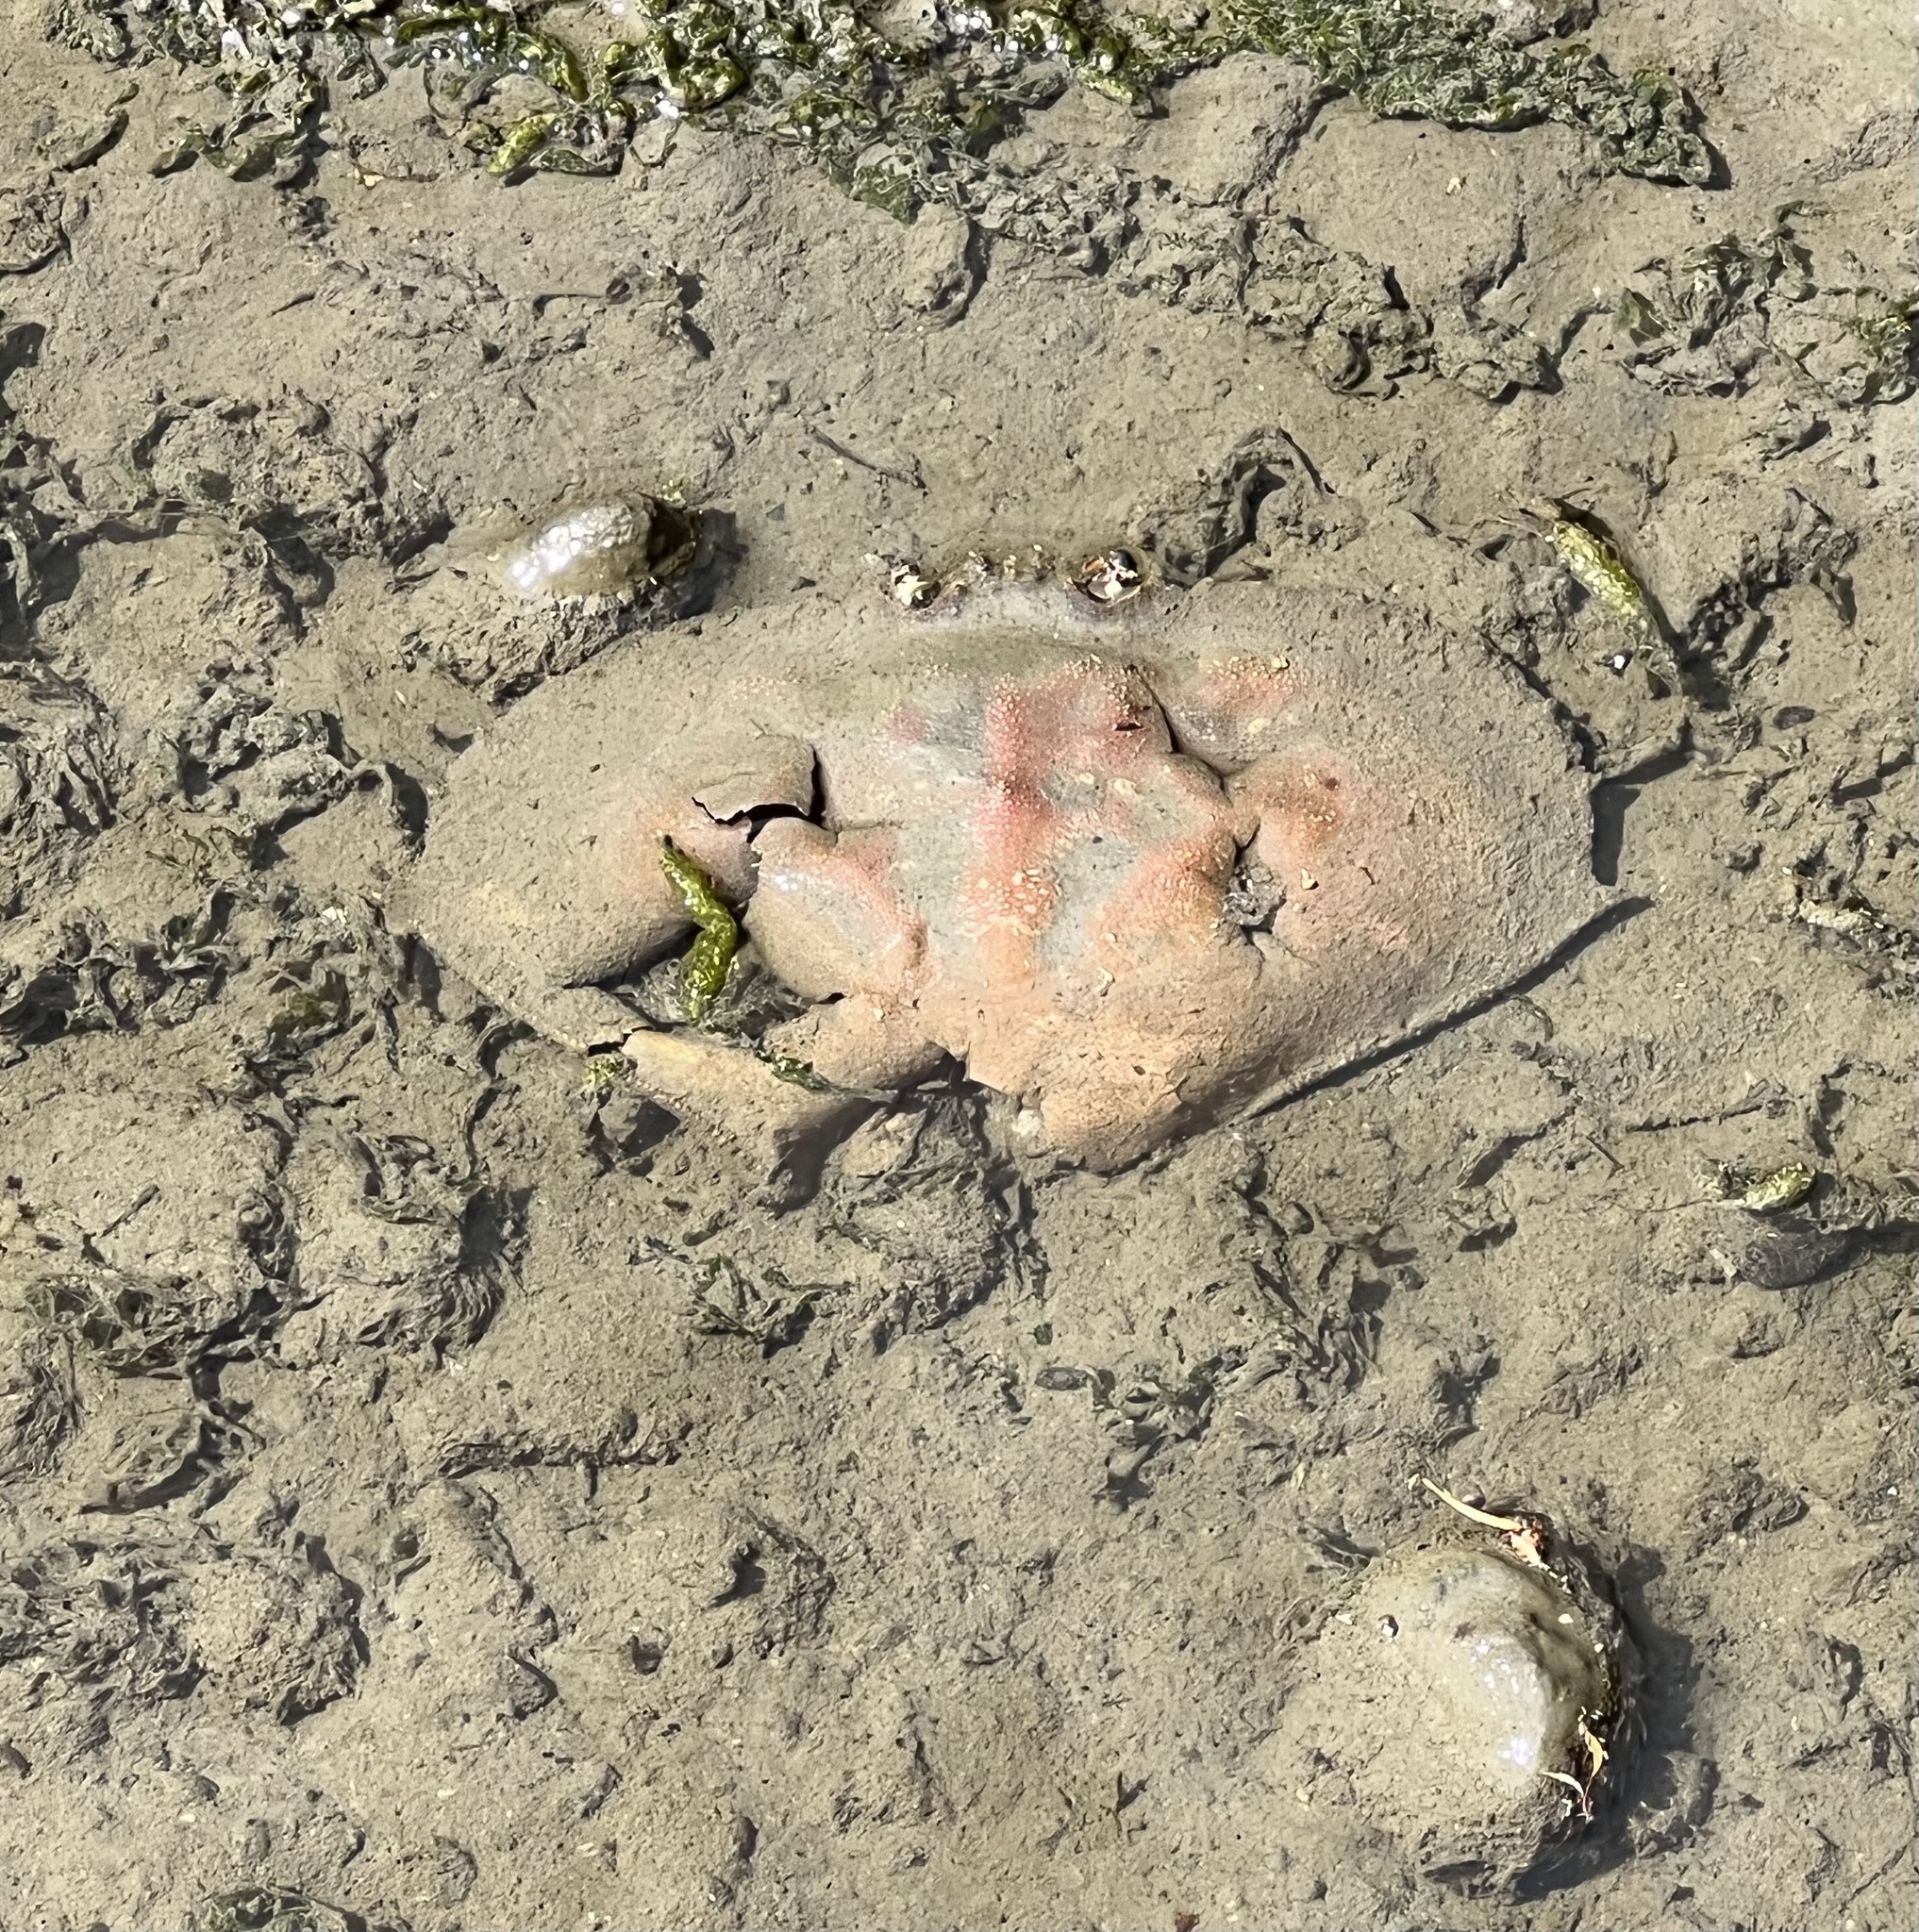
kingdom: Animalia
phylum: Arthropoda
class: Malacostraca
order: Decapoda
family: Cancridae
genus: Metacarcinus
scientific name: Metacarcinus magister
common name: Californian crab
